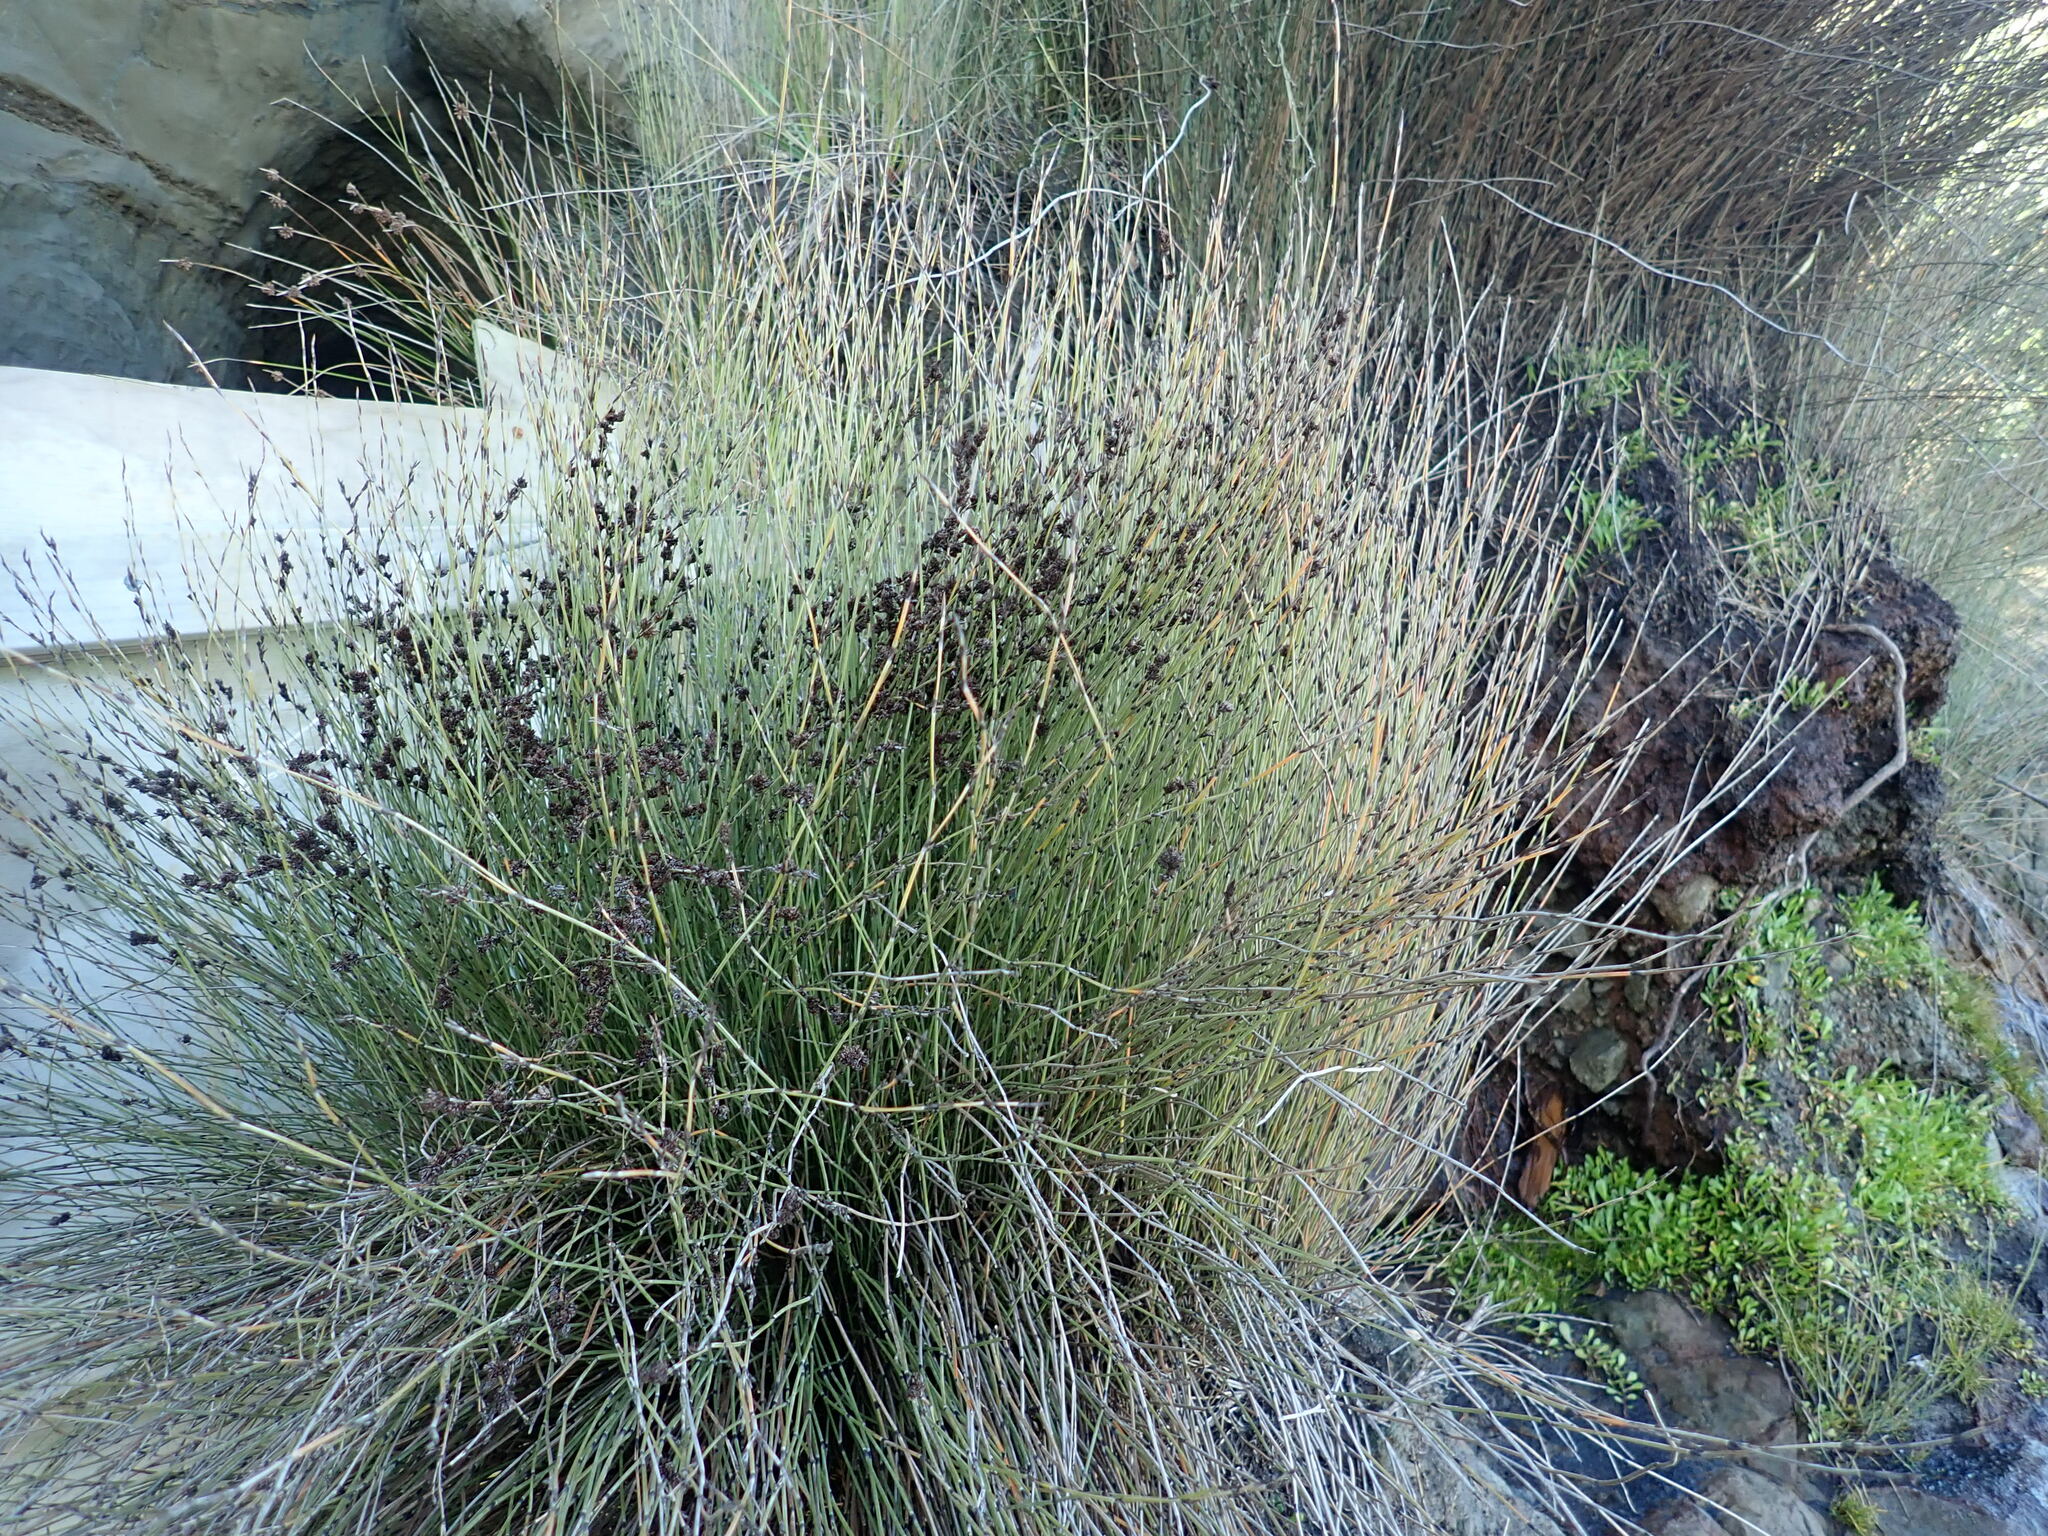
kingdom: Plantae
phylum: Tracheophyta
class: Liliopsida
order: Poales
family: Restionaceae
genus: Apodasmia
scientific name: Apodasmia similis
